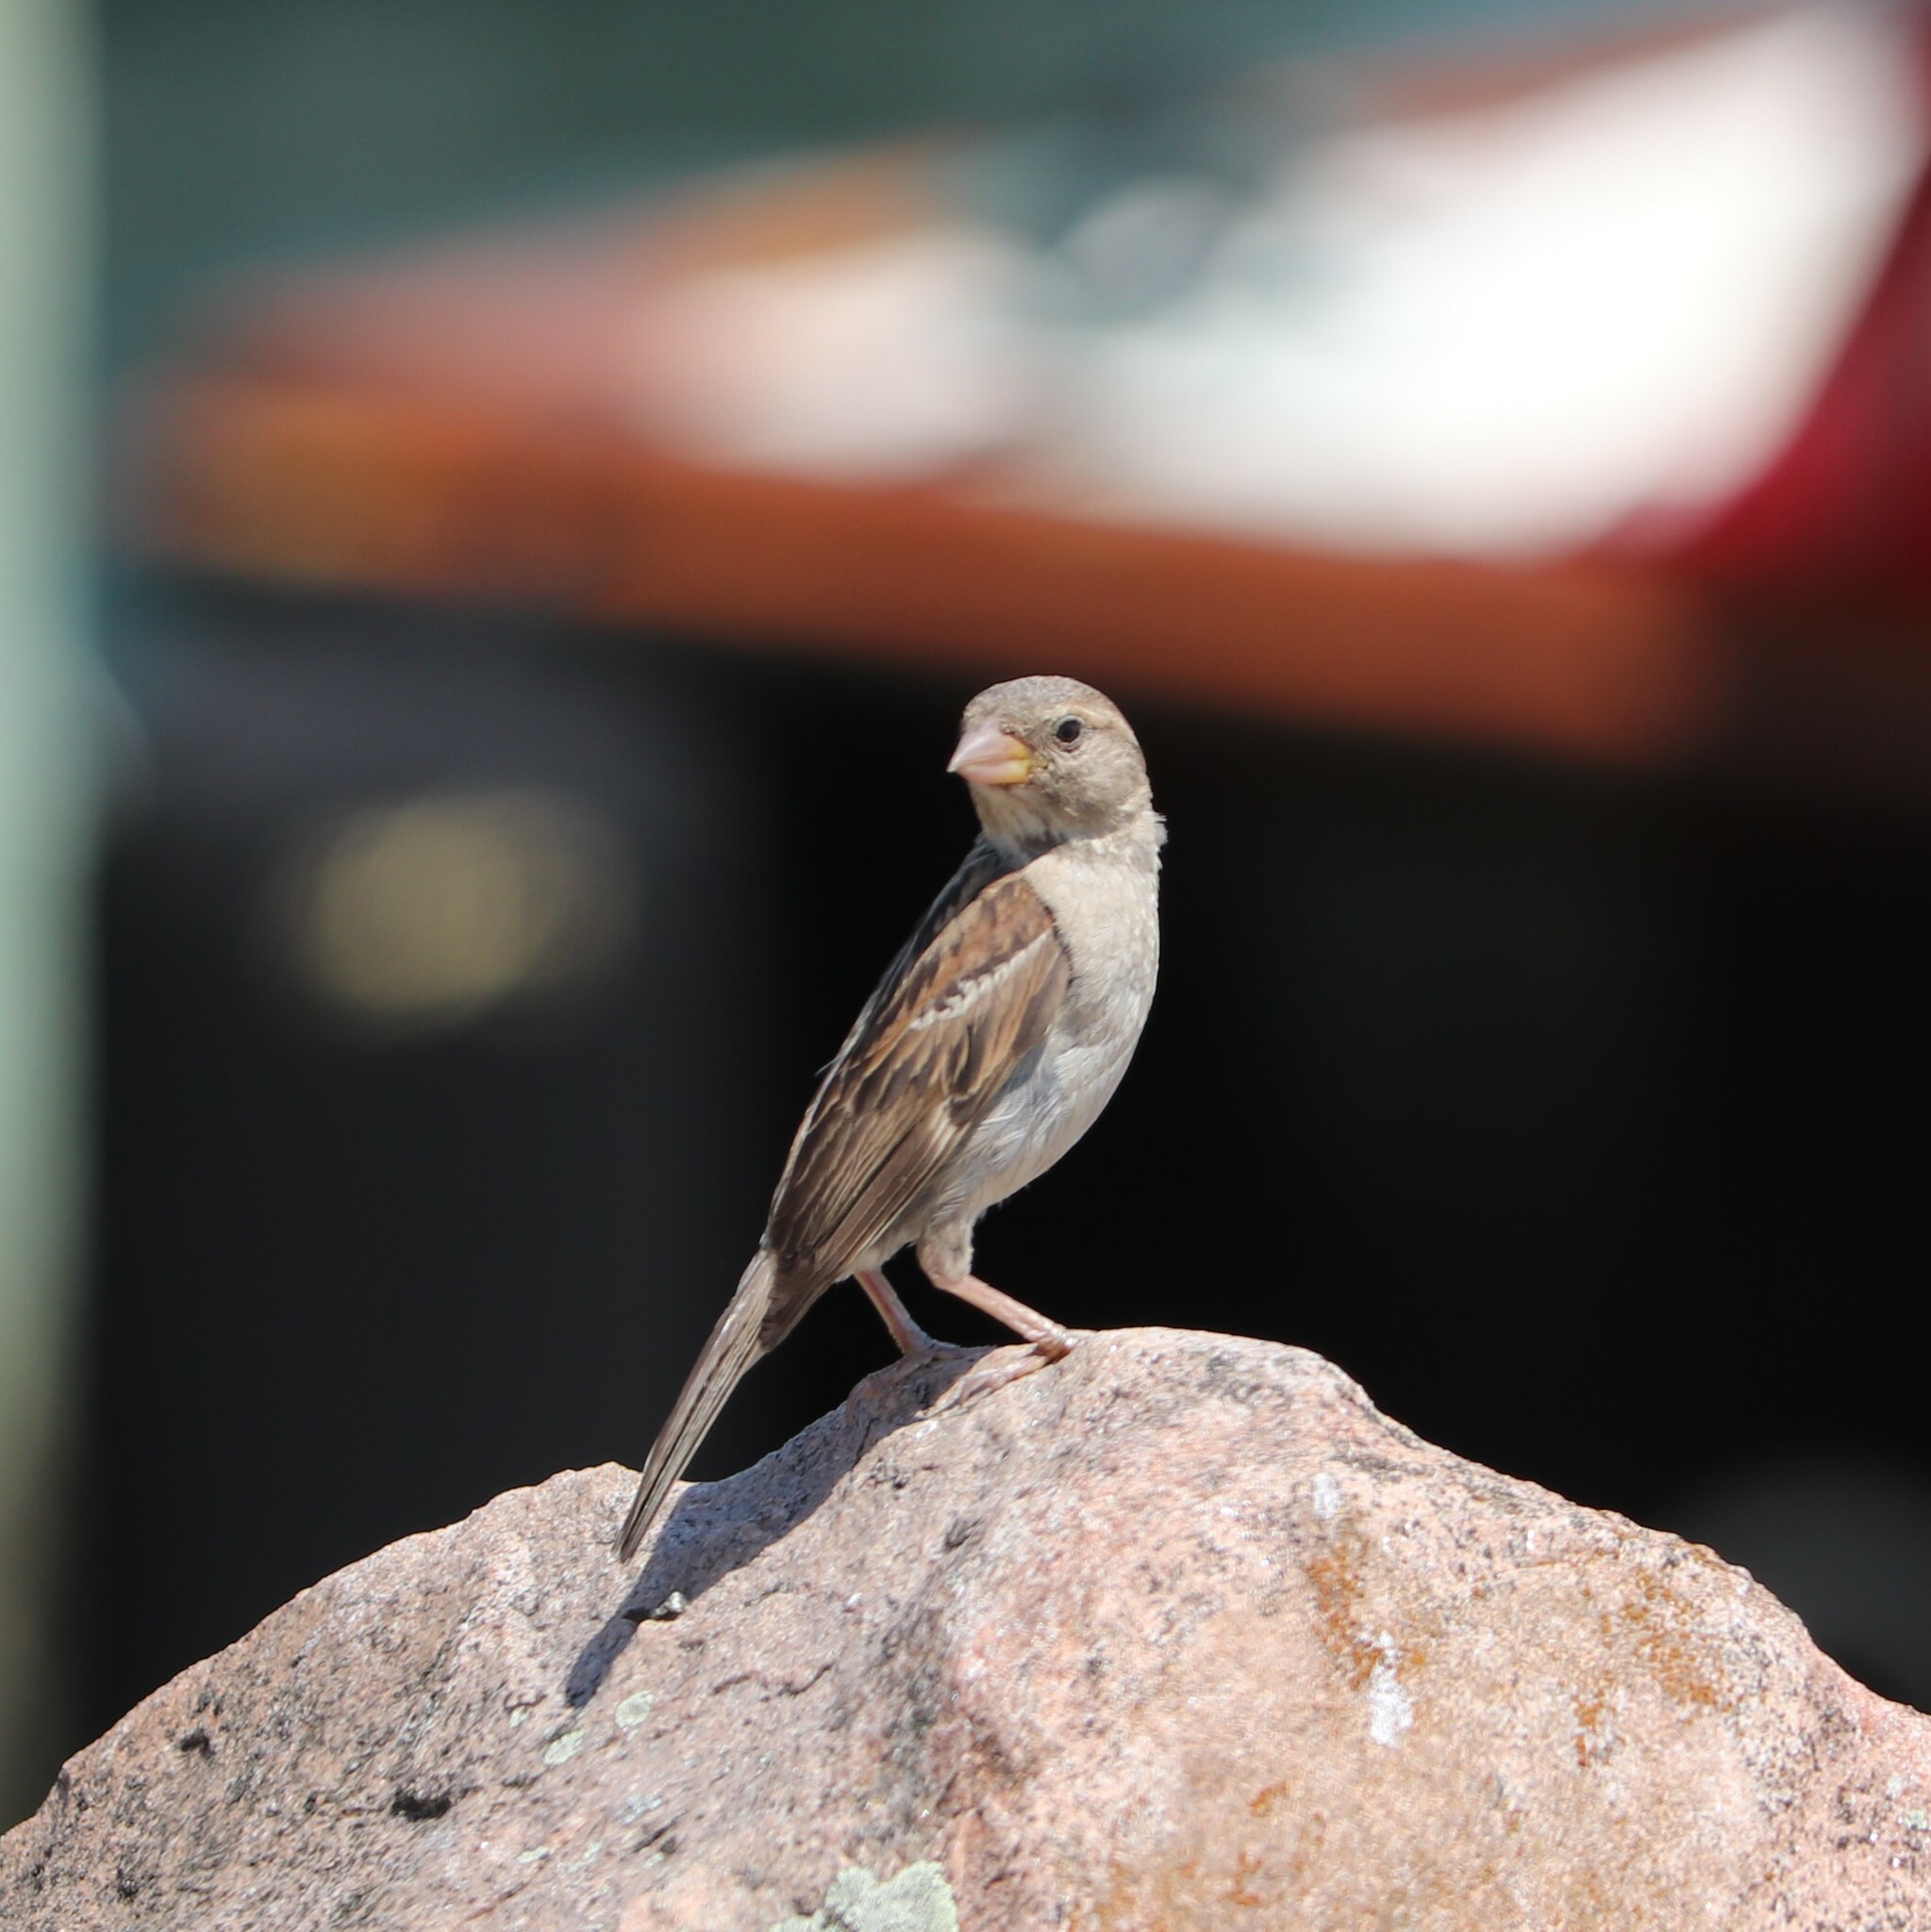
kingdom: Animalia
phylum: Chordata
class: Aves
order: Passeriformes
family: Passeridae
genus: Passer
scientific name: Passer domesticus
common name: House sparrow
